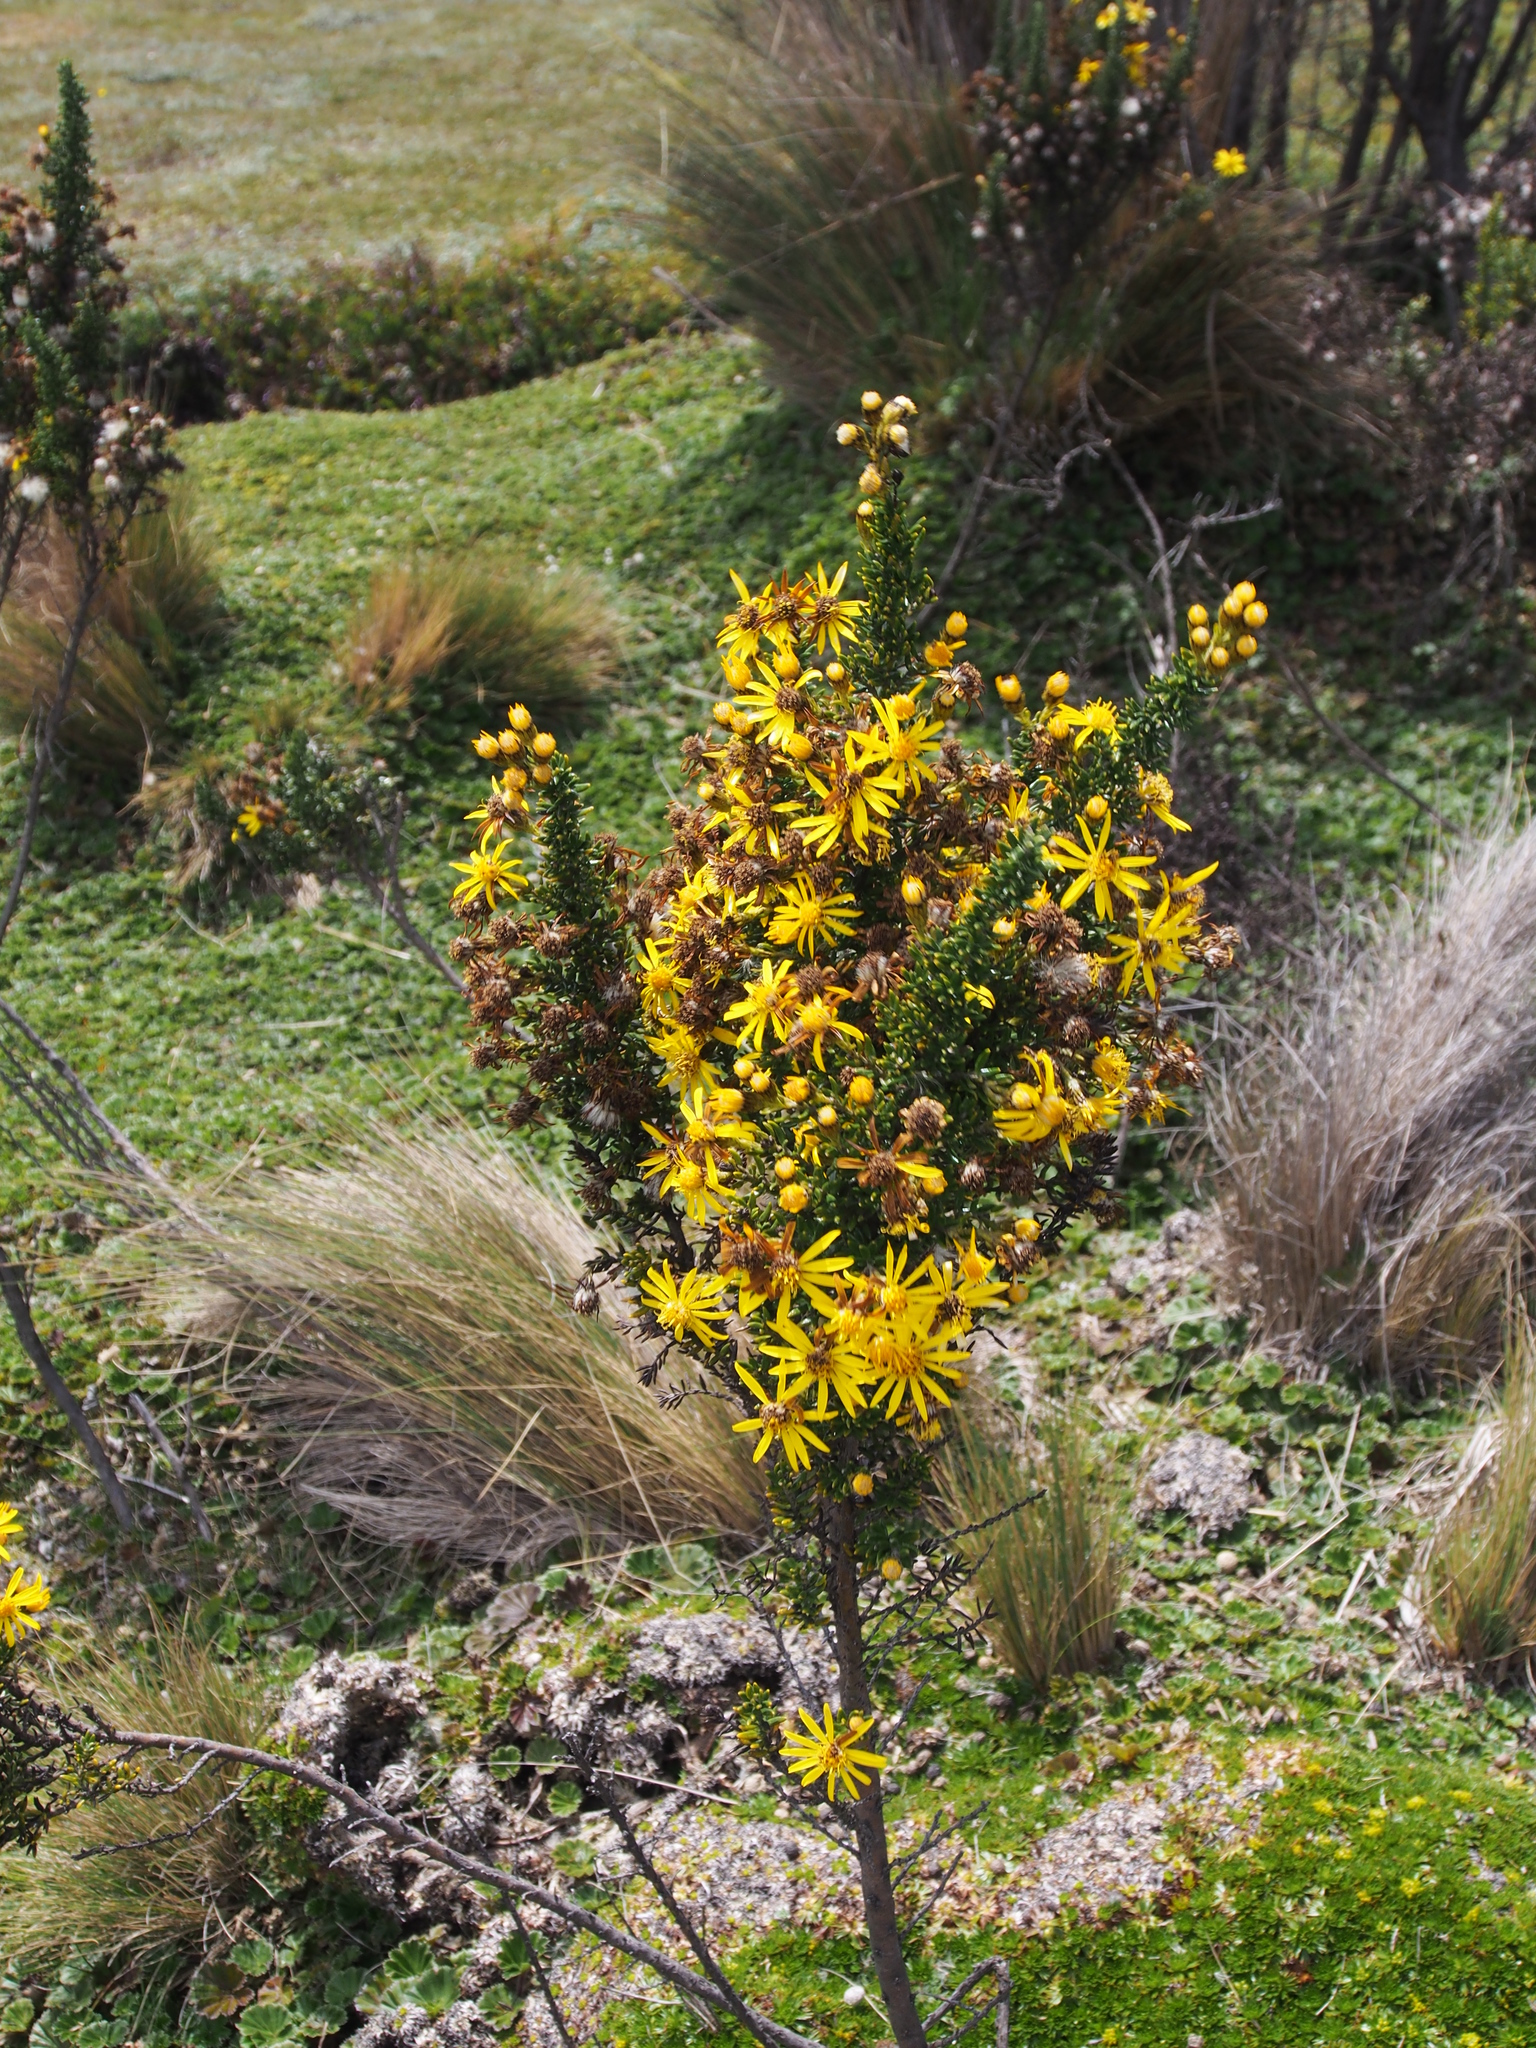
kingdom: Plantae
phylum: Tracheophyta
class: Magnoliopsida
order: Asterales
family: Asteraceae
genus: Monticalia
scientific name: Monticalia peruviana
